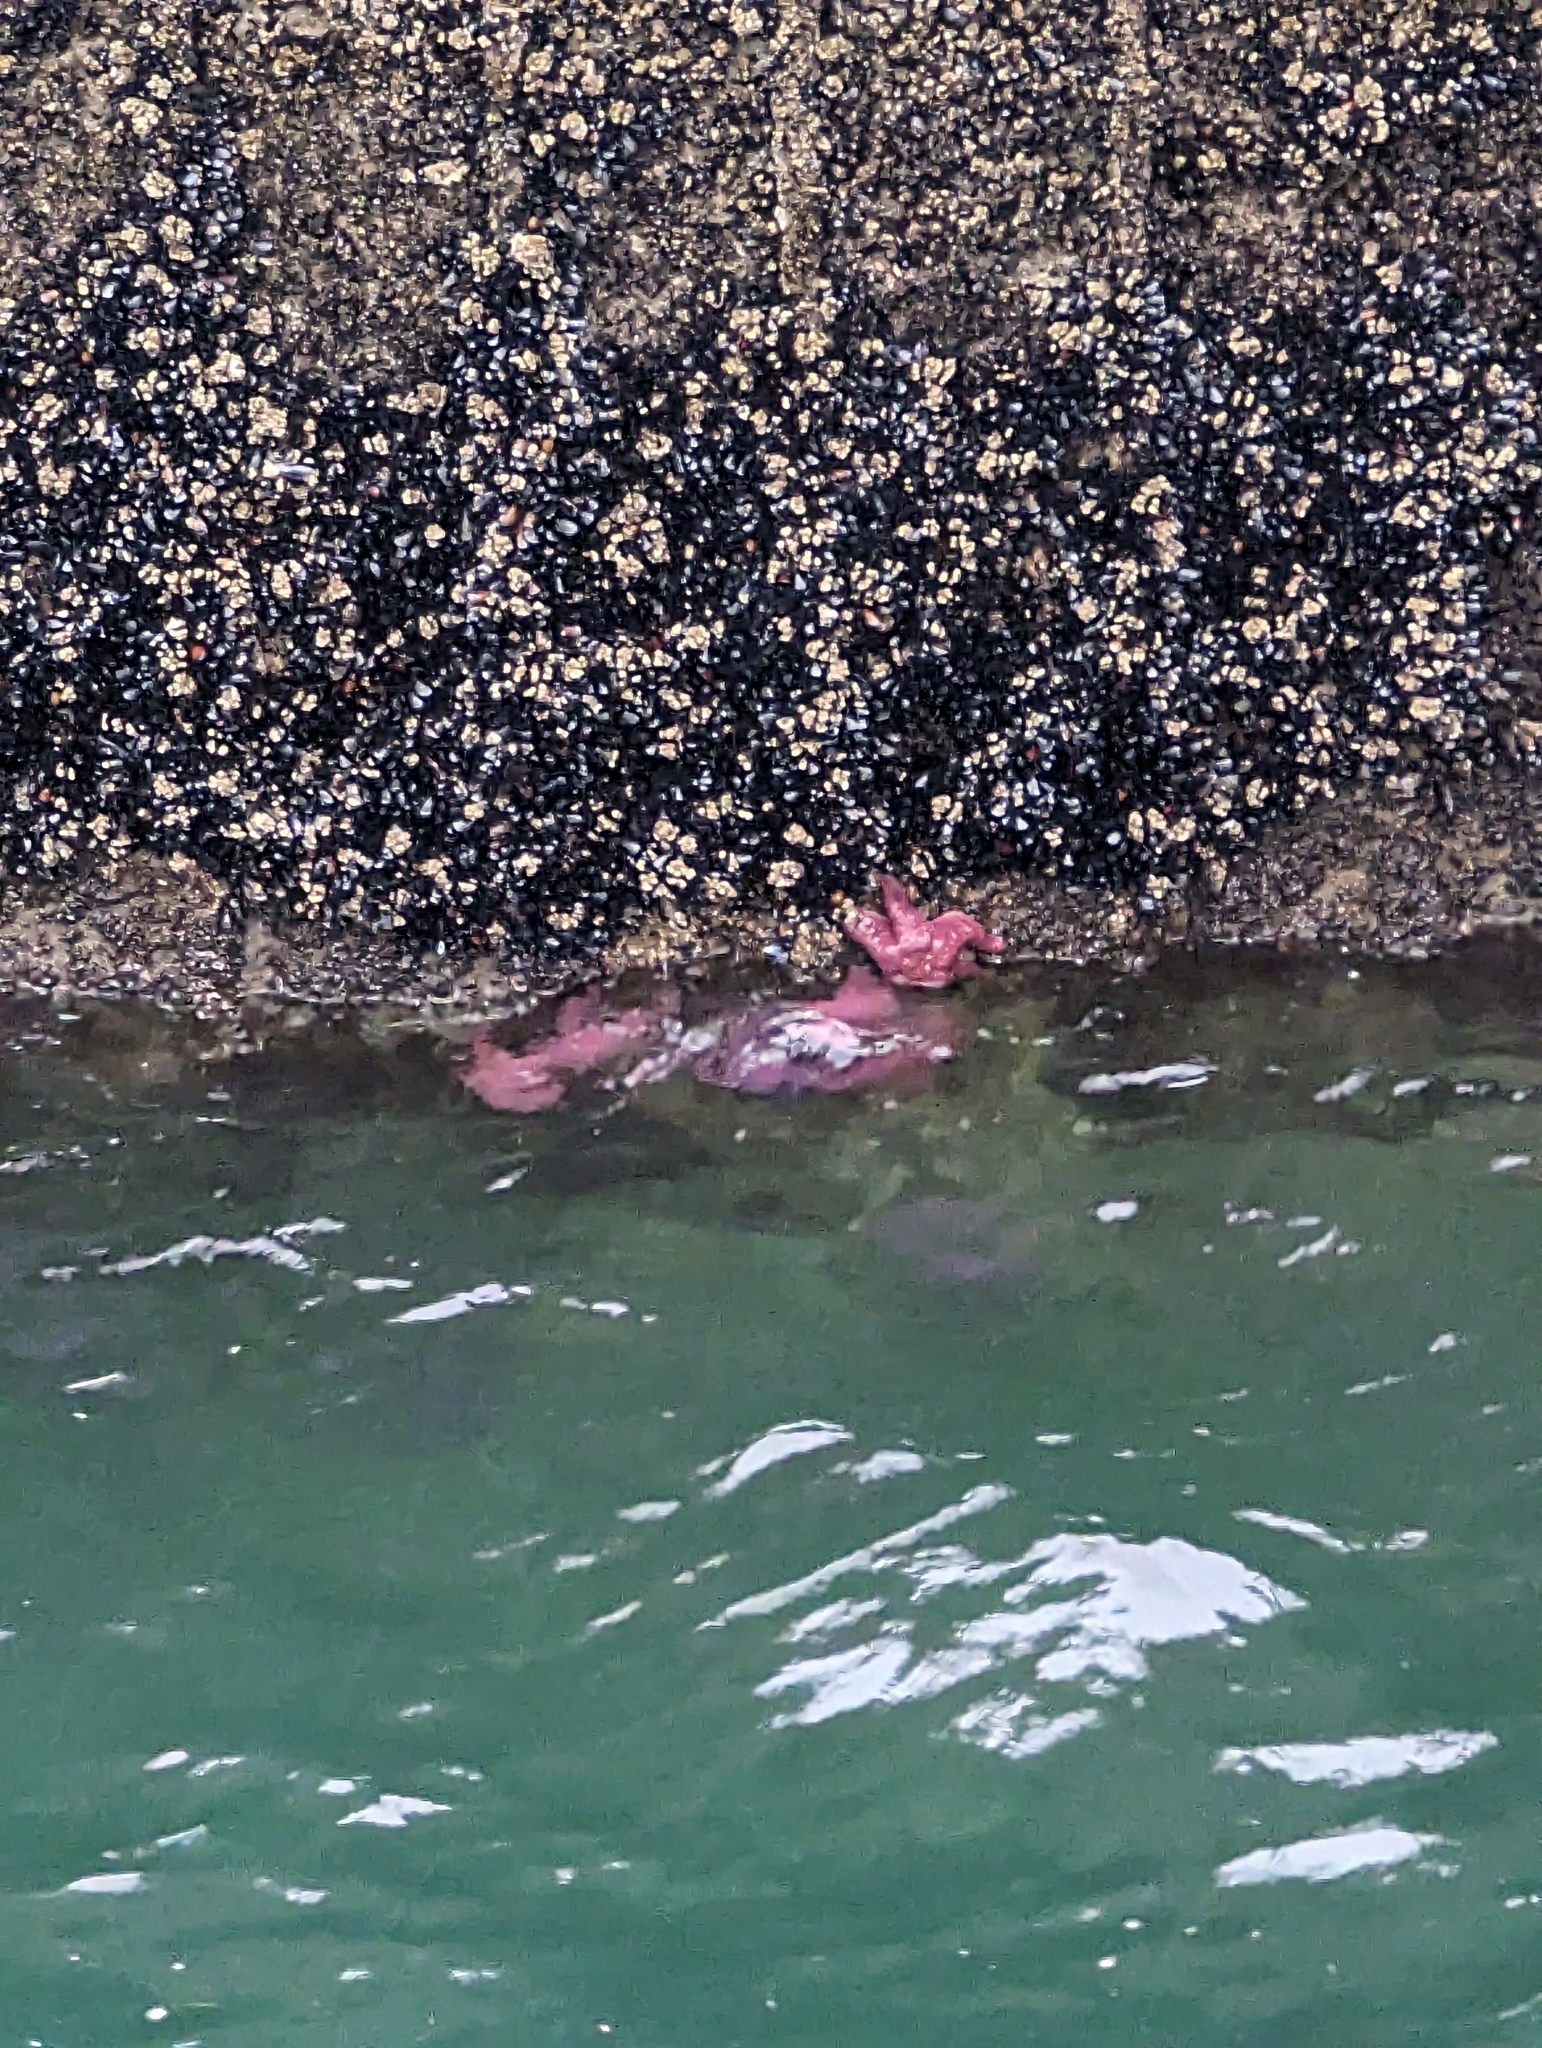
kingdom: Animalia
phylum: Echinodermata
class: Asteroidea
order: Forcipulatida
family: Asteriidae
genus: Pisaster
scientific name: Pisaster ochraceus
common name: Ochre stars
